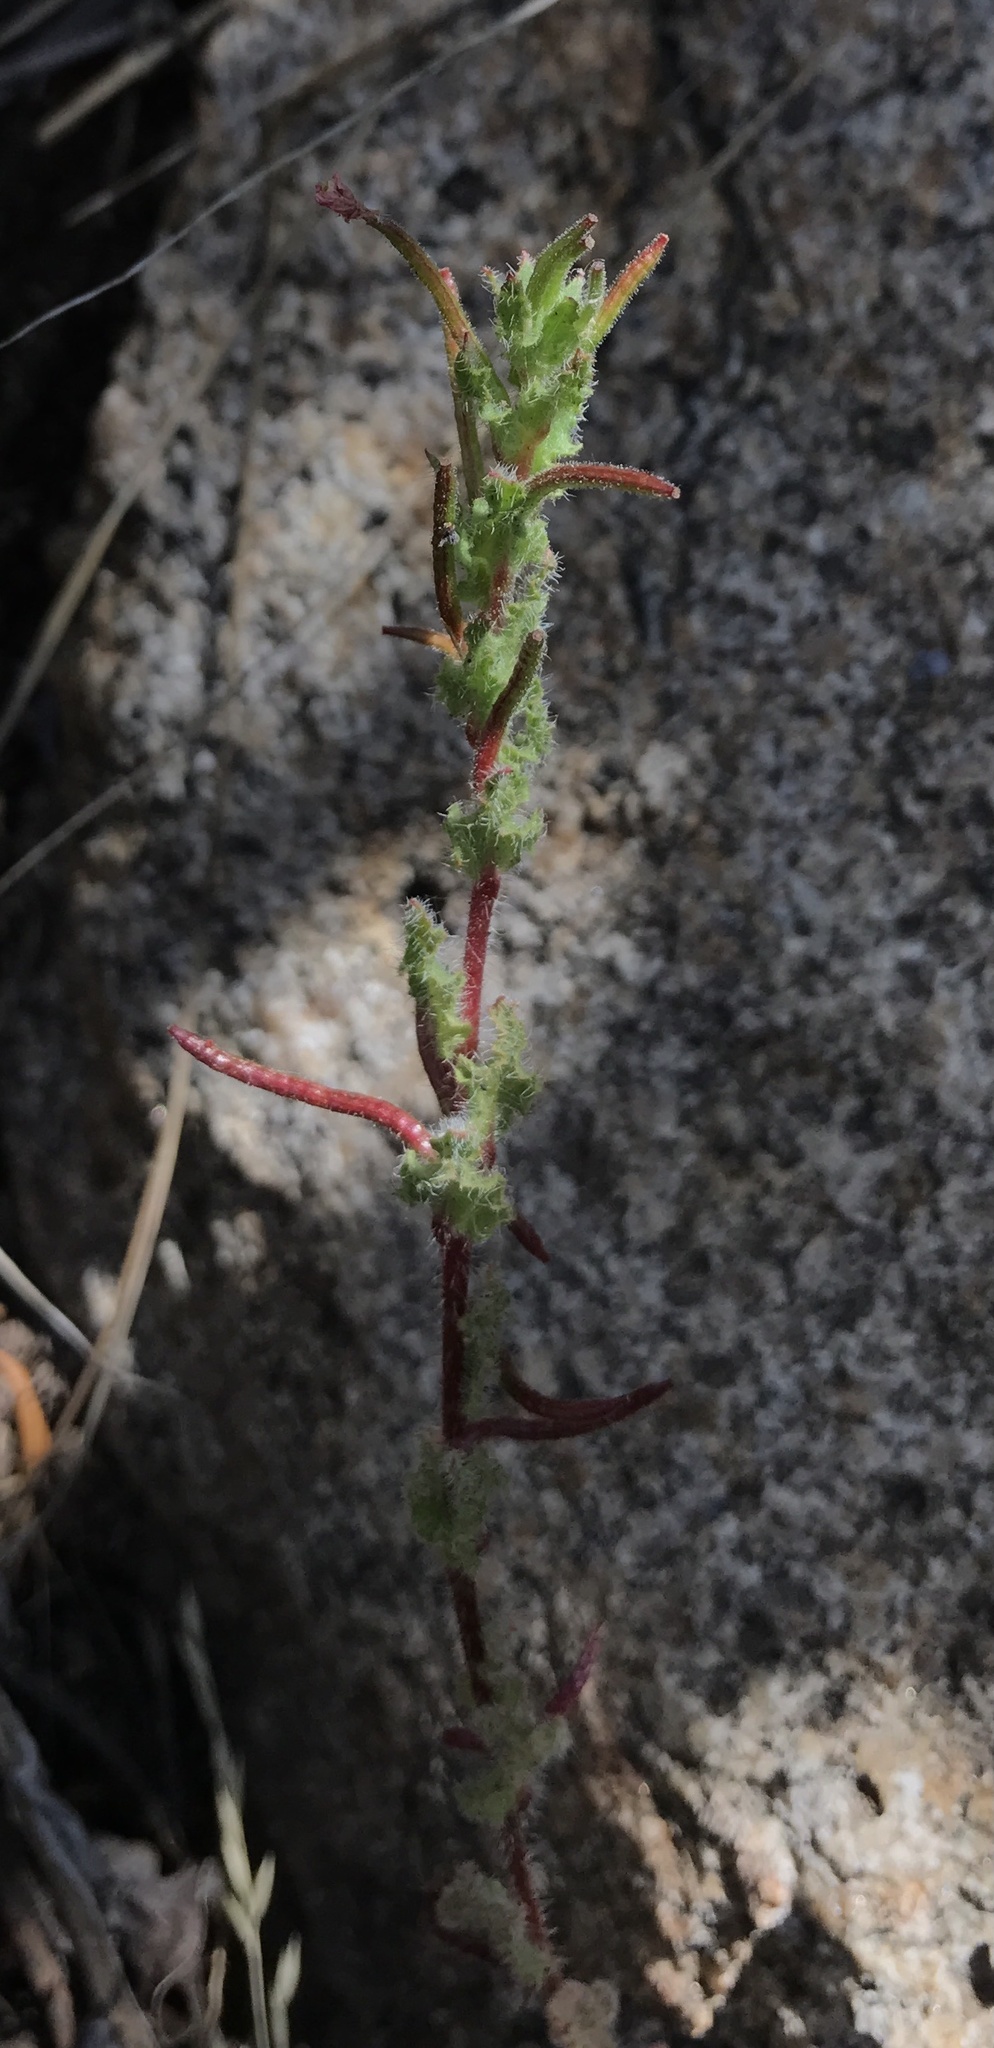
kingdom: Plantae
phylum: Tracheophyta
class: Magnoliopsida
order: Myrtales
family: Onagraceae
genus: Camissoniopsis
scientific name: Camissoniopsis hirtella
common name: Santa cruz island suncup
